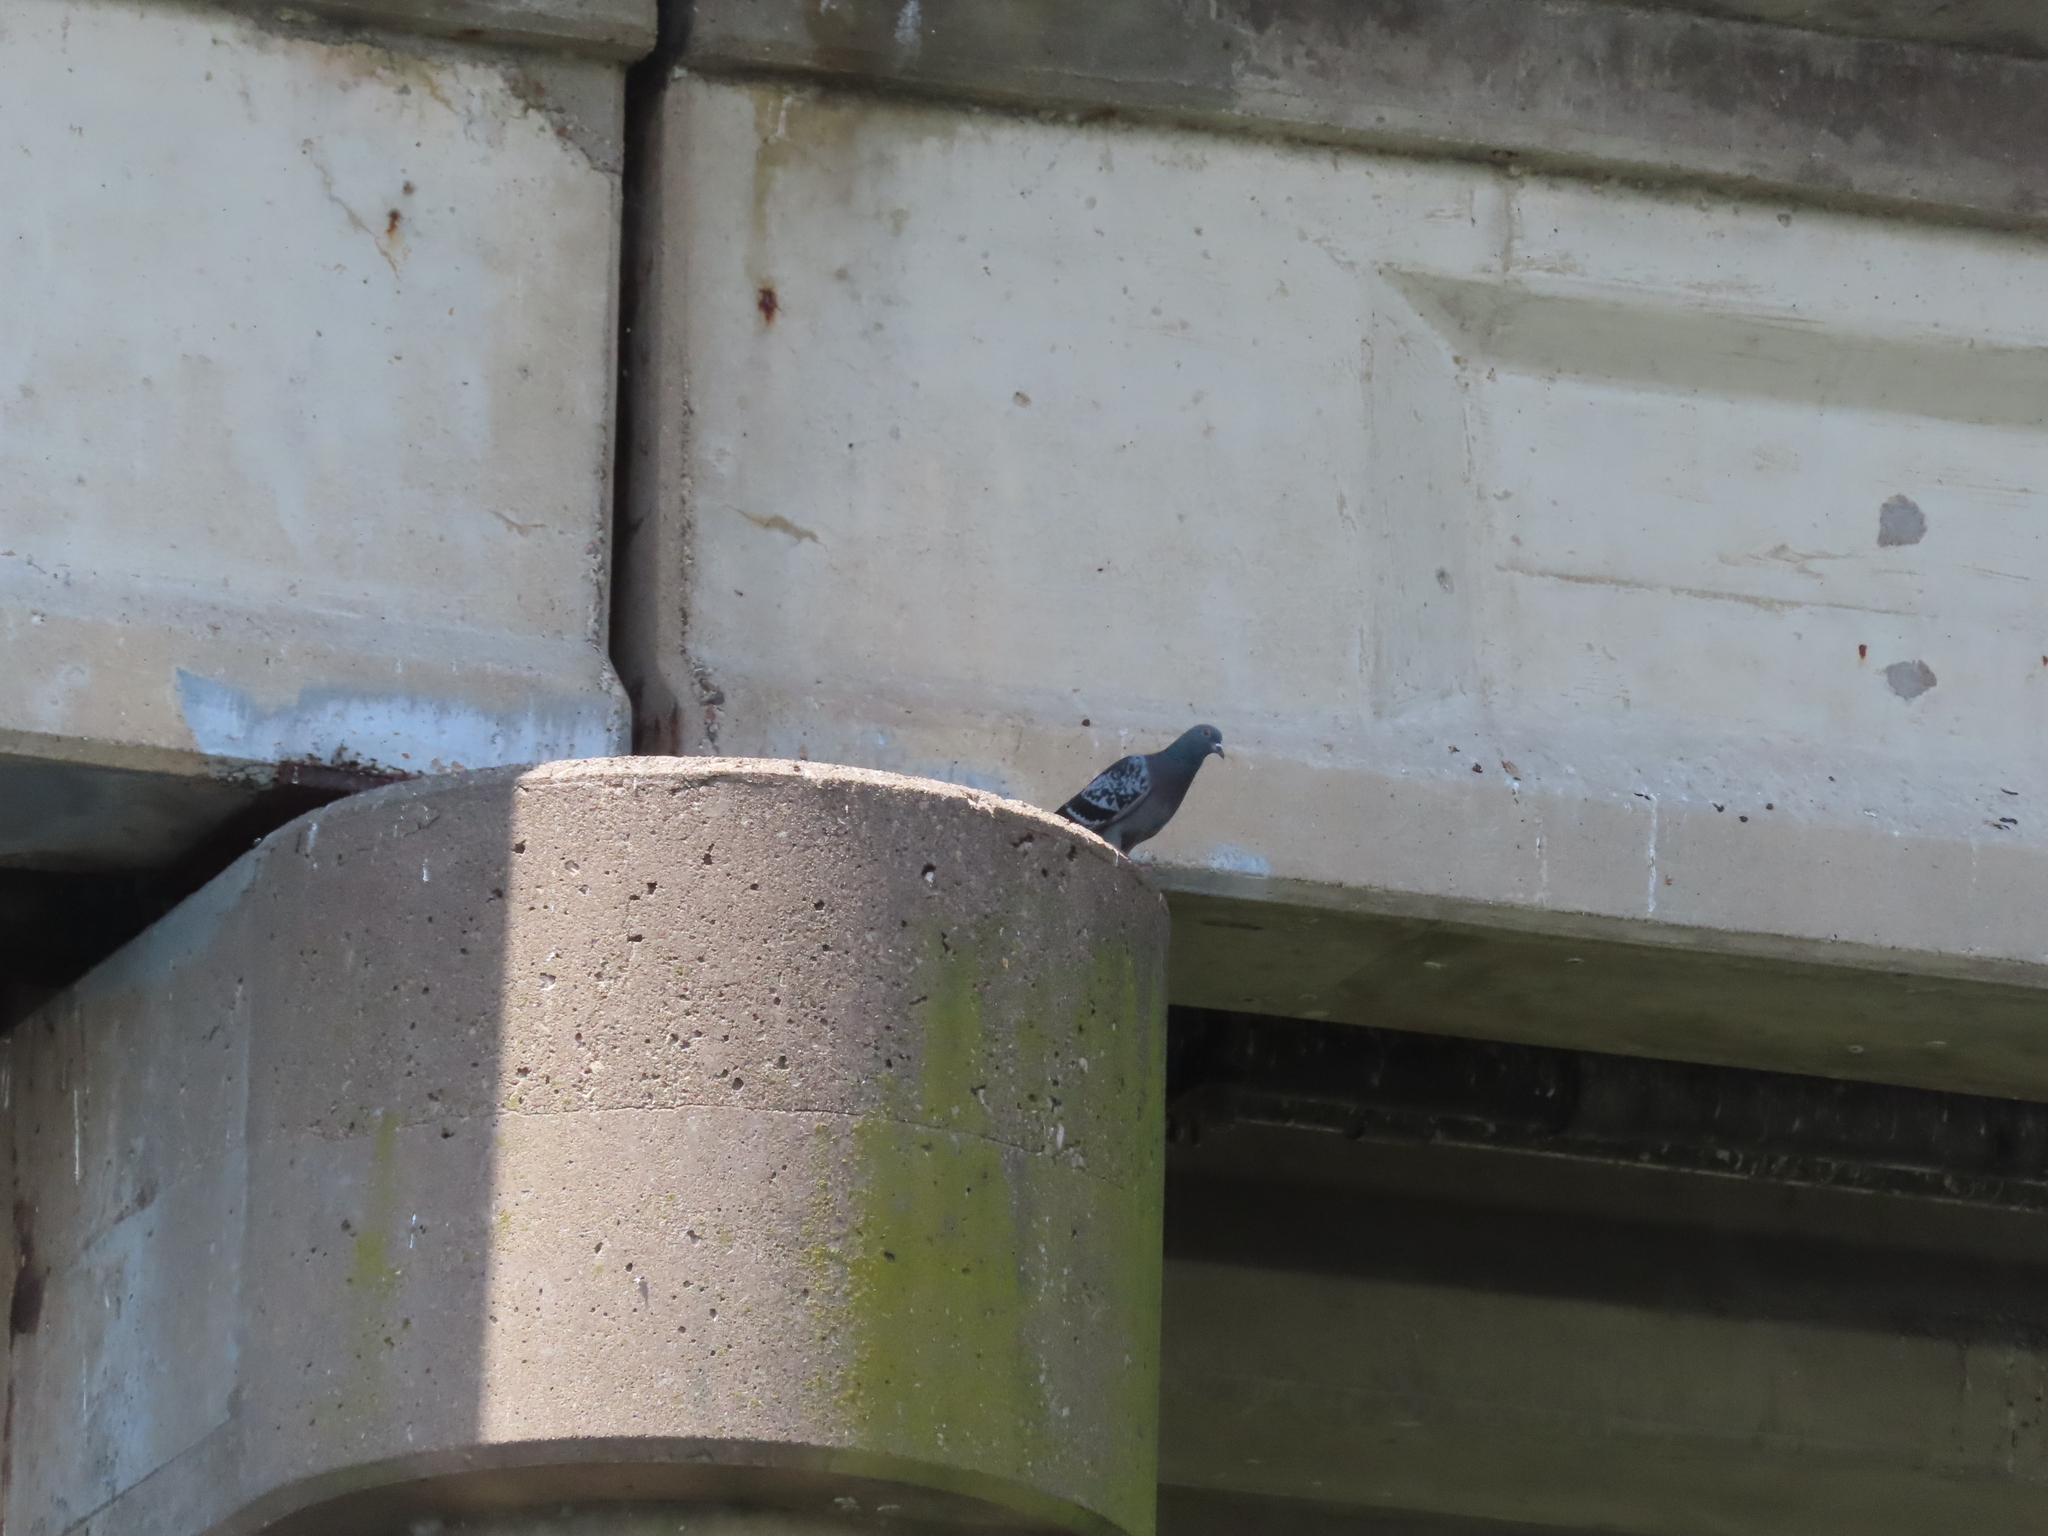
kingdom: Animalia
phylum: Chordata
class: Aves
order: Columbiformes
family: Columbidae
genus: Columba
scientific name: Columba livia
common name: Rock pigeon
